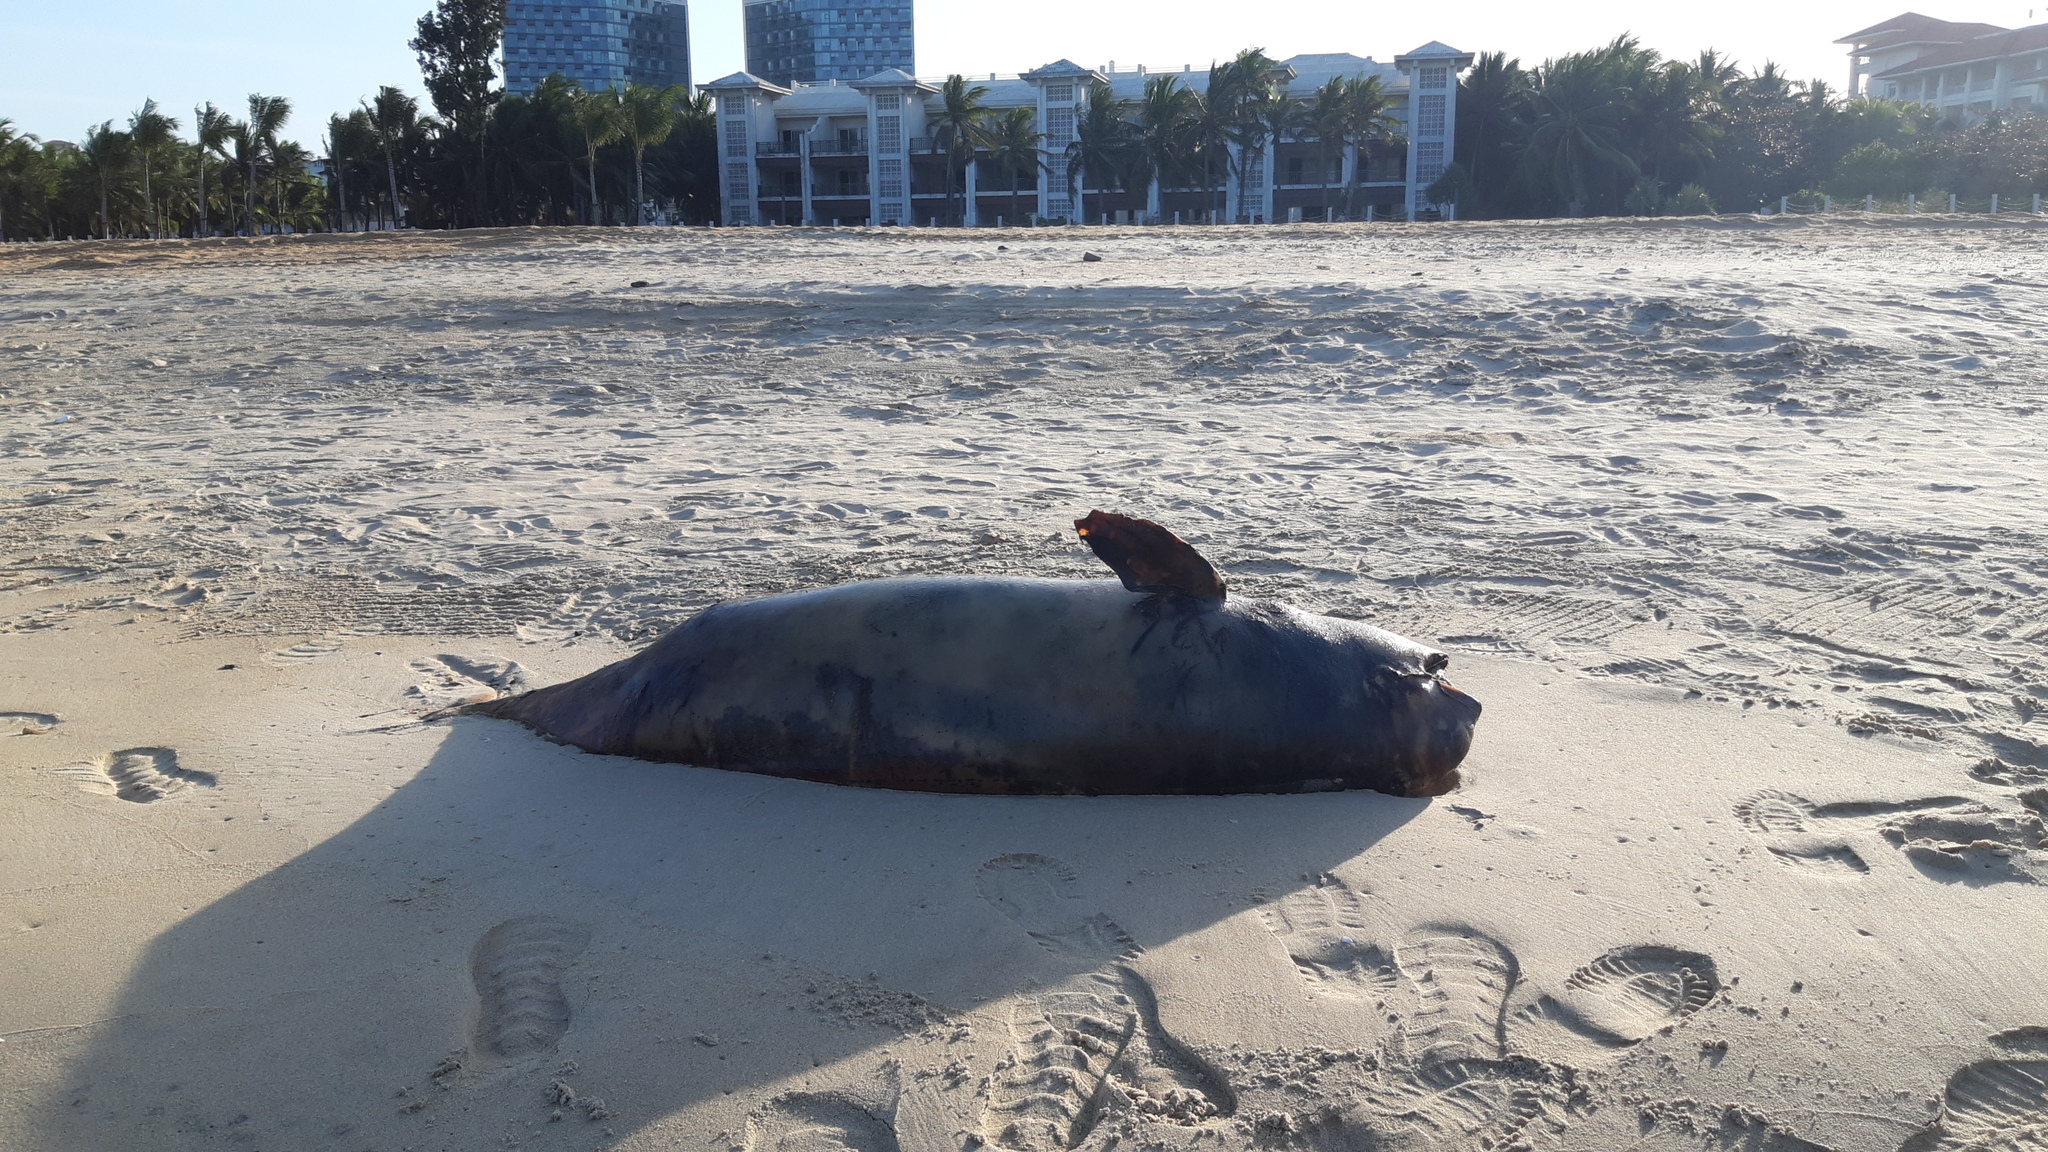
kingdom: Animalia
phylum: Chordata
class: Mammalia
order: Cetacea
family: Phocoenidae
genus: Neophocaena
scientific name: Neophocaena phocaenoides
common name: Finless porpoise
